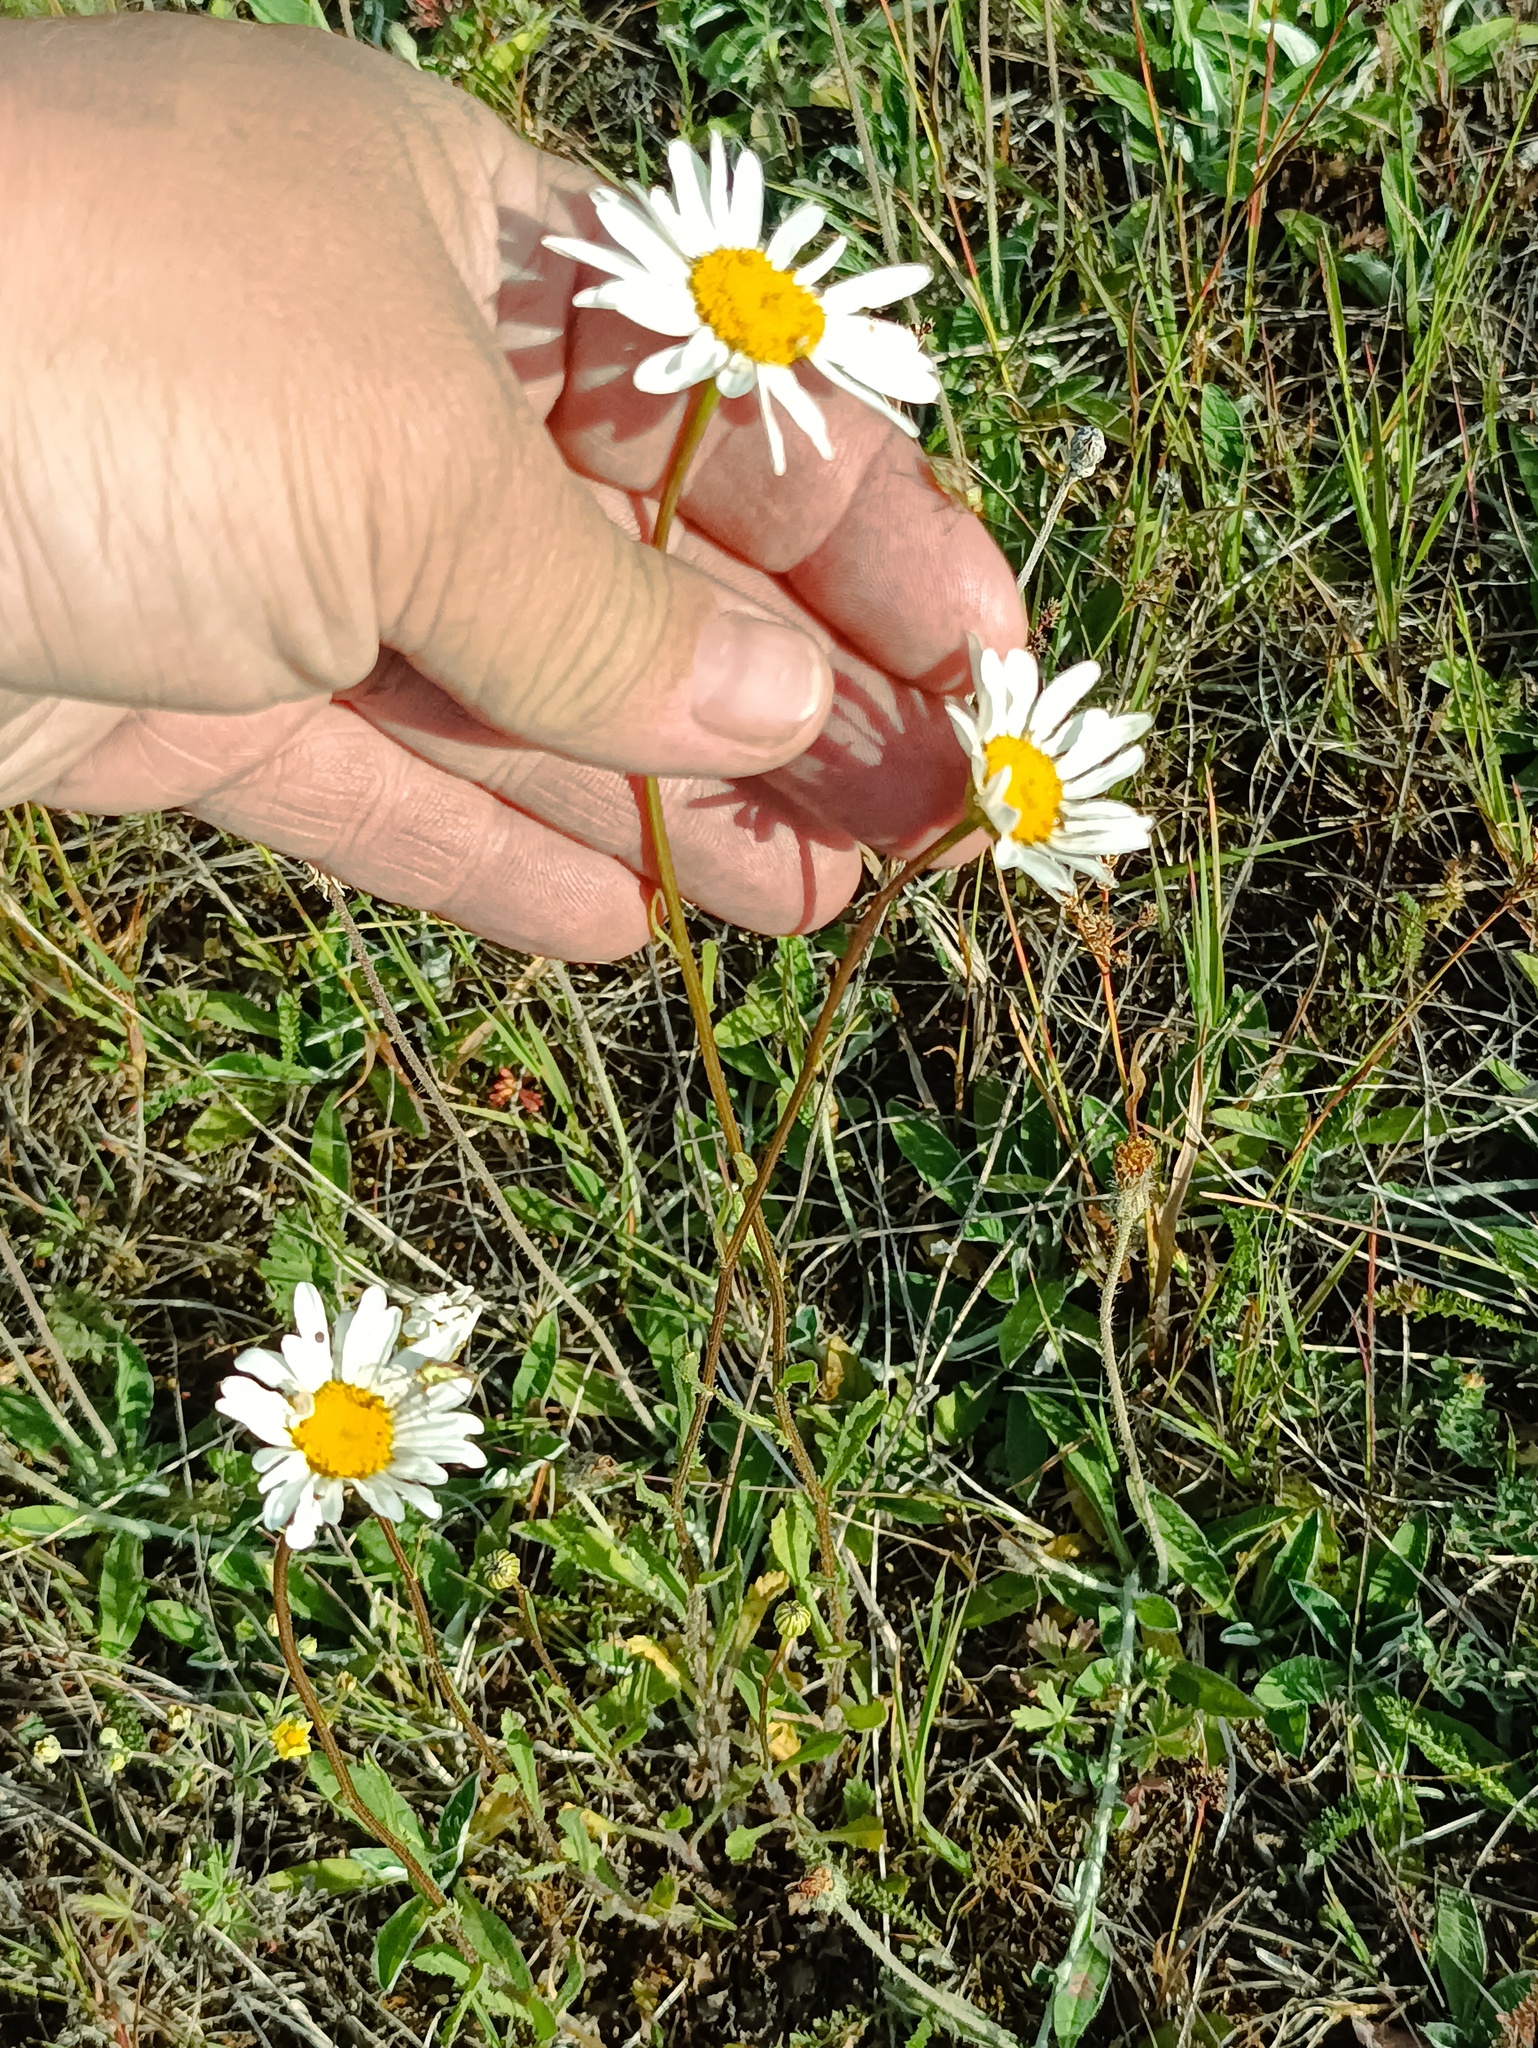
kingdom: Plantae
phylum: Tracheophyta
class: Magnoliopsida
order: Asterales
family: Asteraceae
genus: Leucanthemum
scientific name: Leucanthemum vulgare
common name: Oxeye daisy
